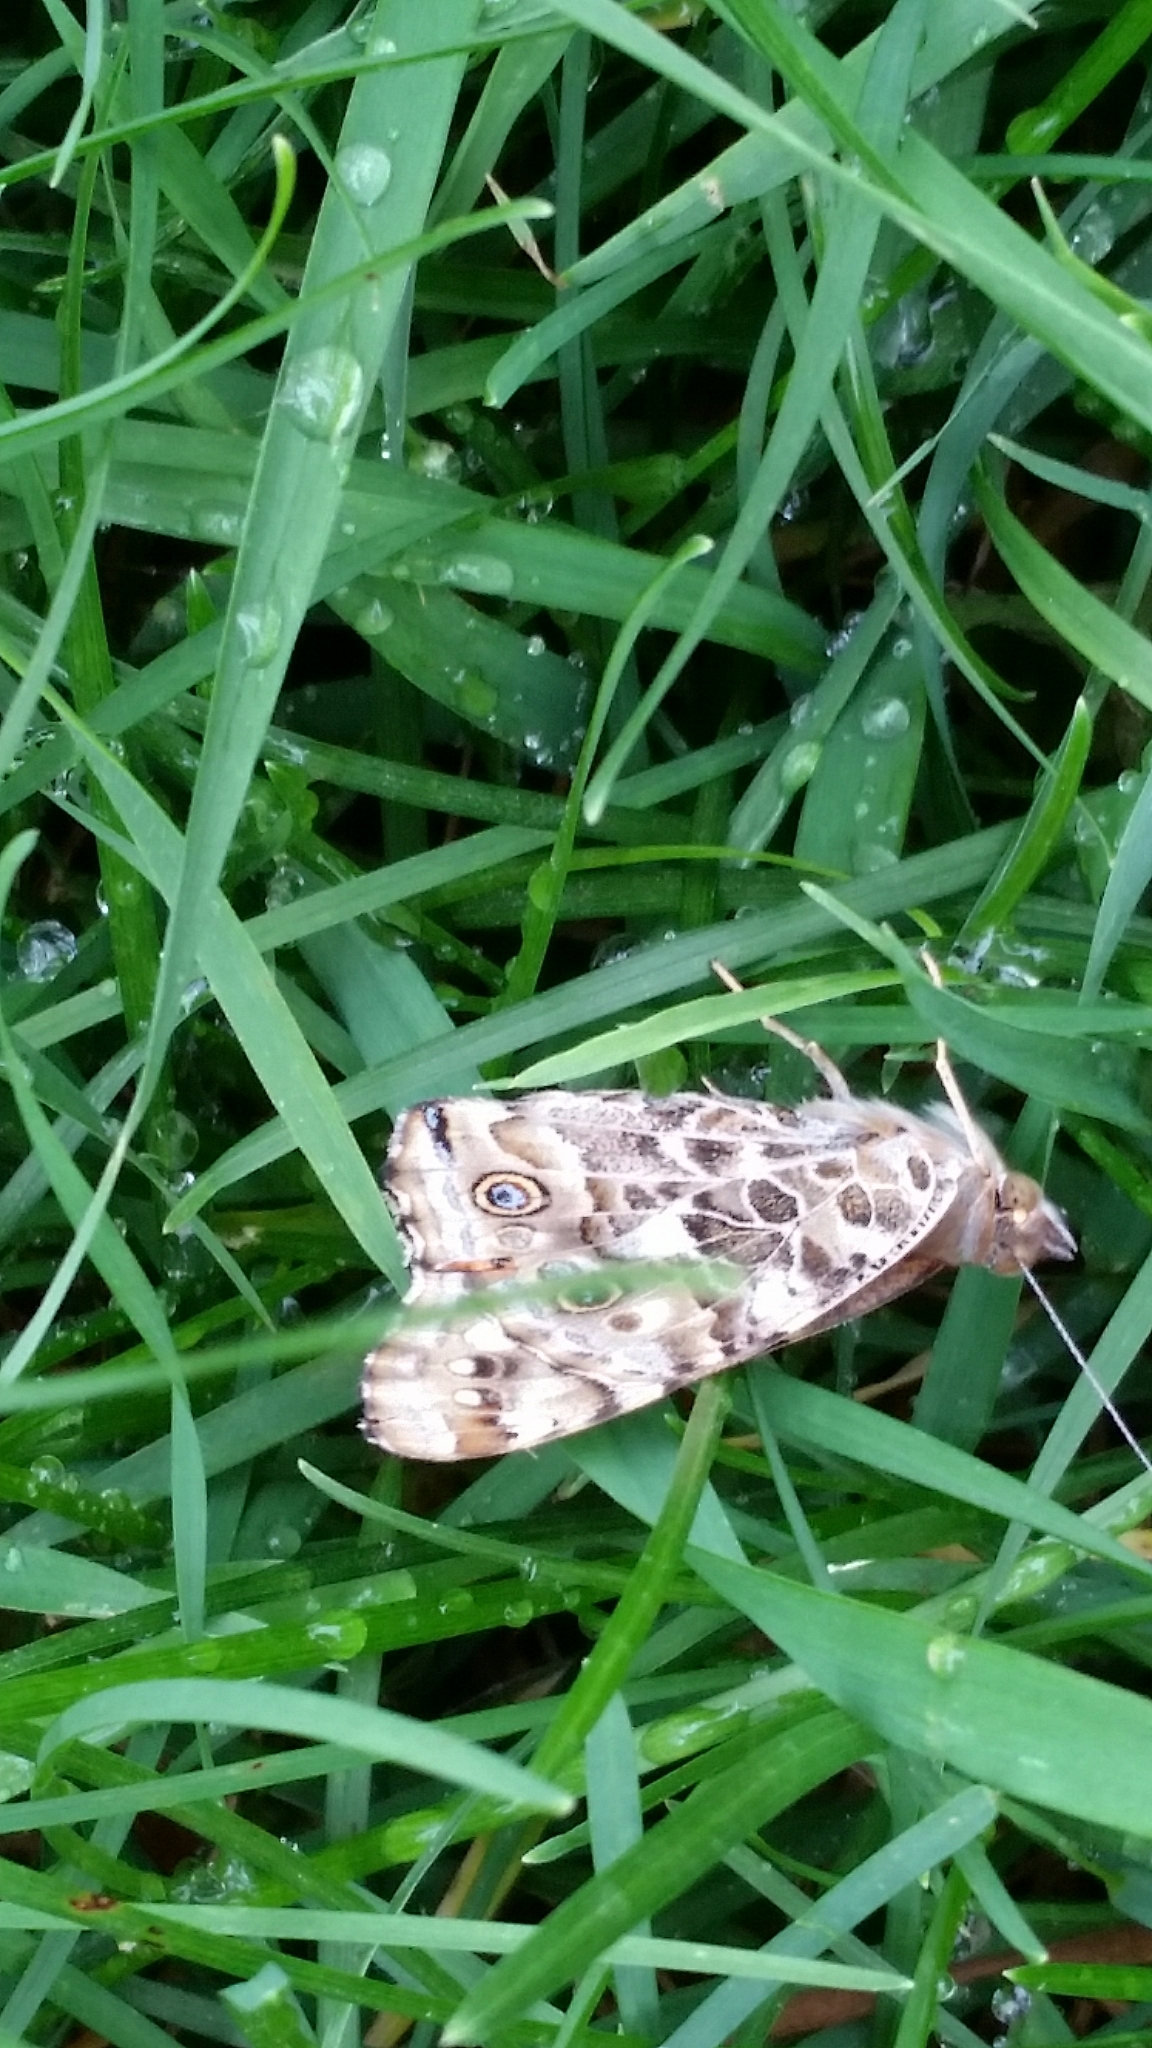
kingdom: Animalia
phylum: Arthropoda
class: Insecta
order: Lepidoptera
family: Nymphalidae
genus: Vanessa
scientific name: Vanessa cardui
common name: Painted lady
